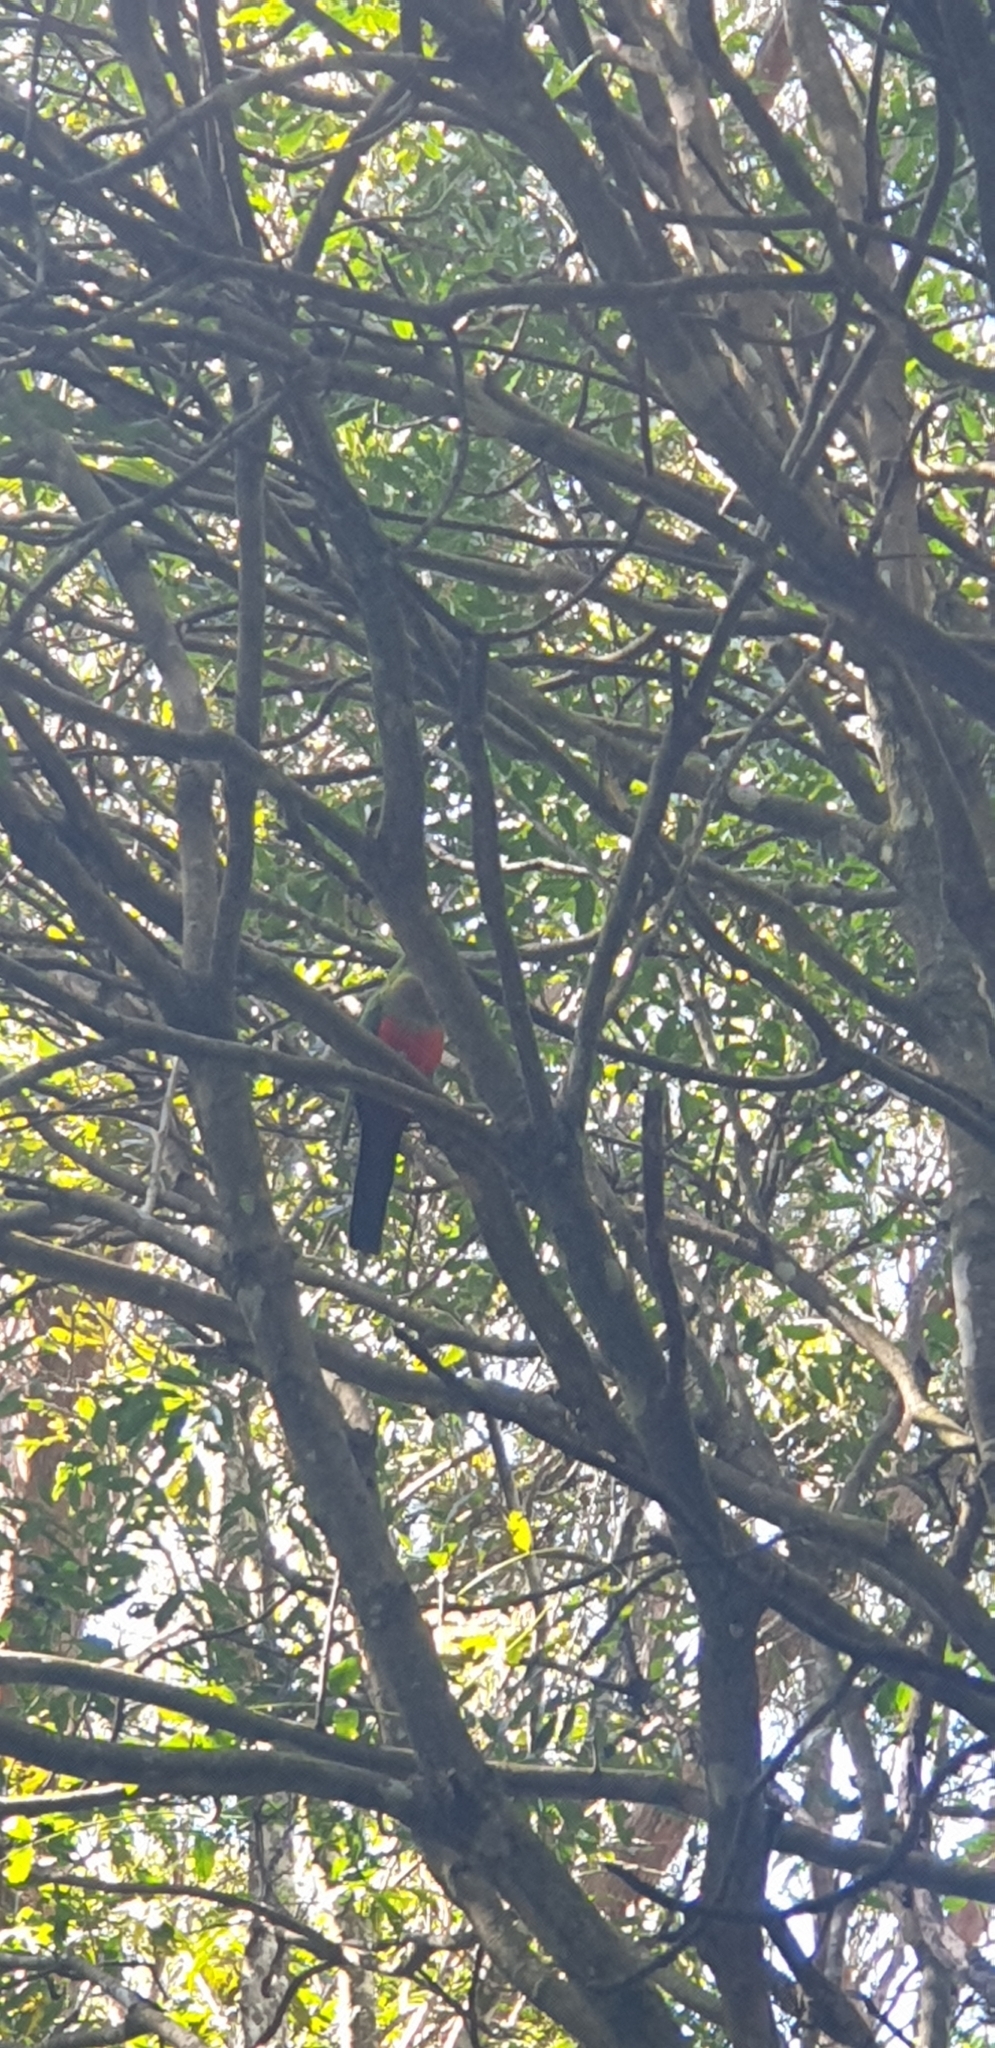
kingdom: Animalia
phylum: Chordata
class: Aves
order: Psittaciformes
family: Psittacidae
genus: Alisterus
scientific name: Alisterus scapularis
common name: Australian king parrot
